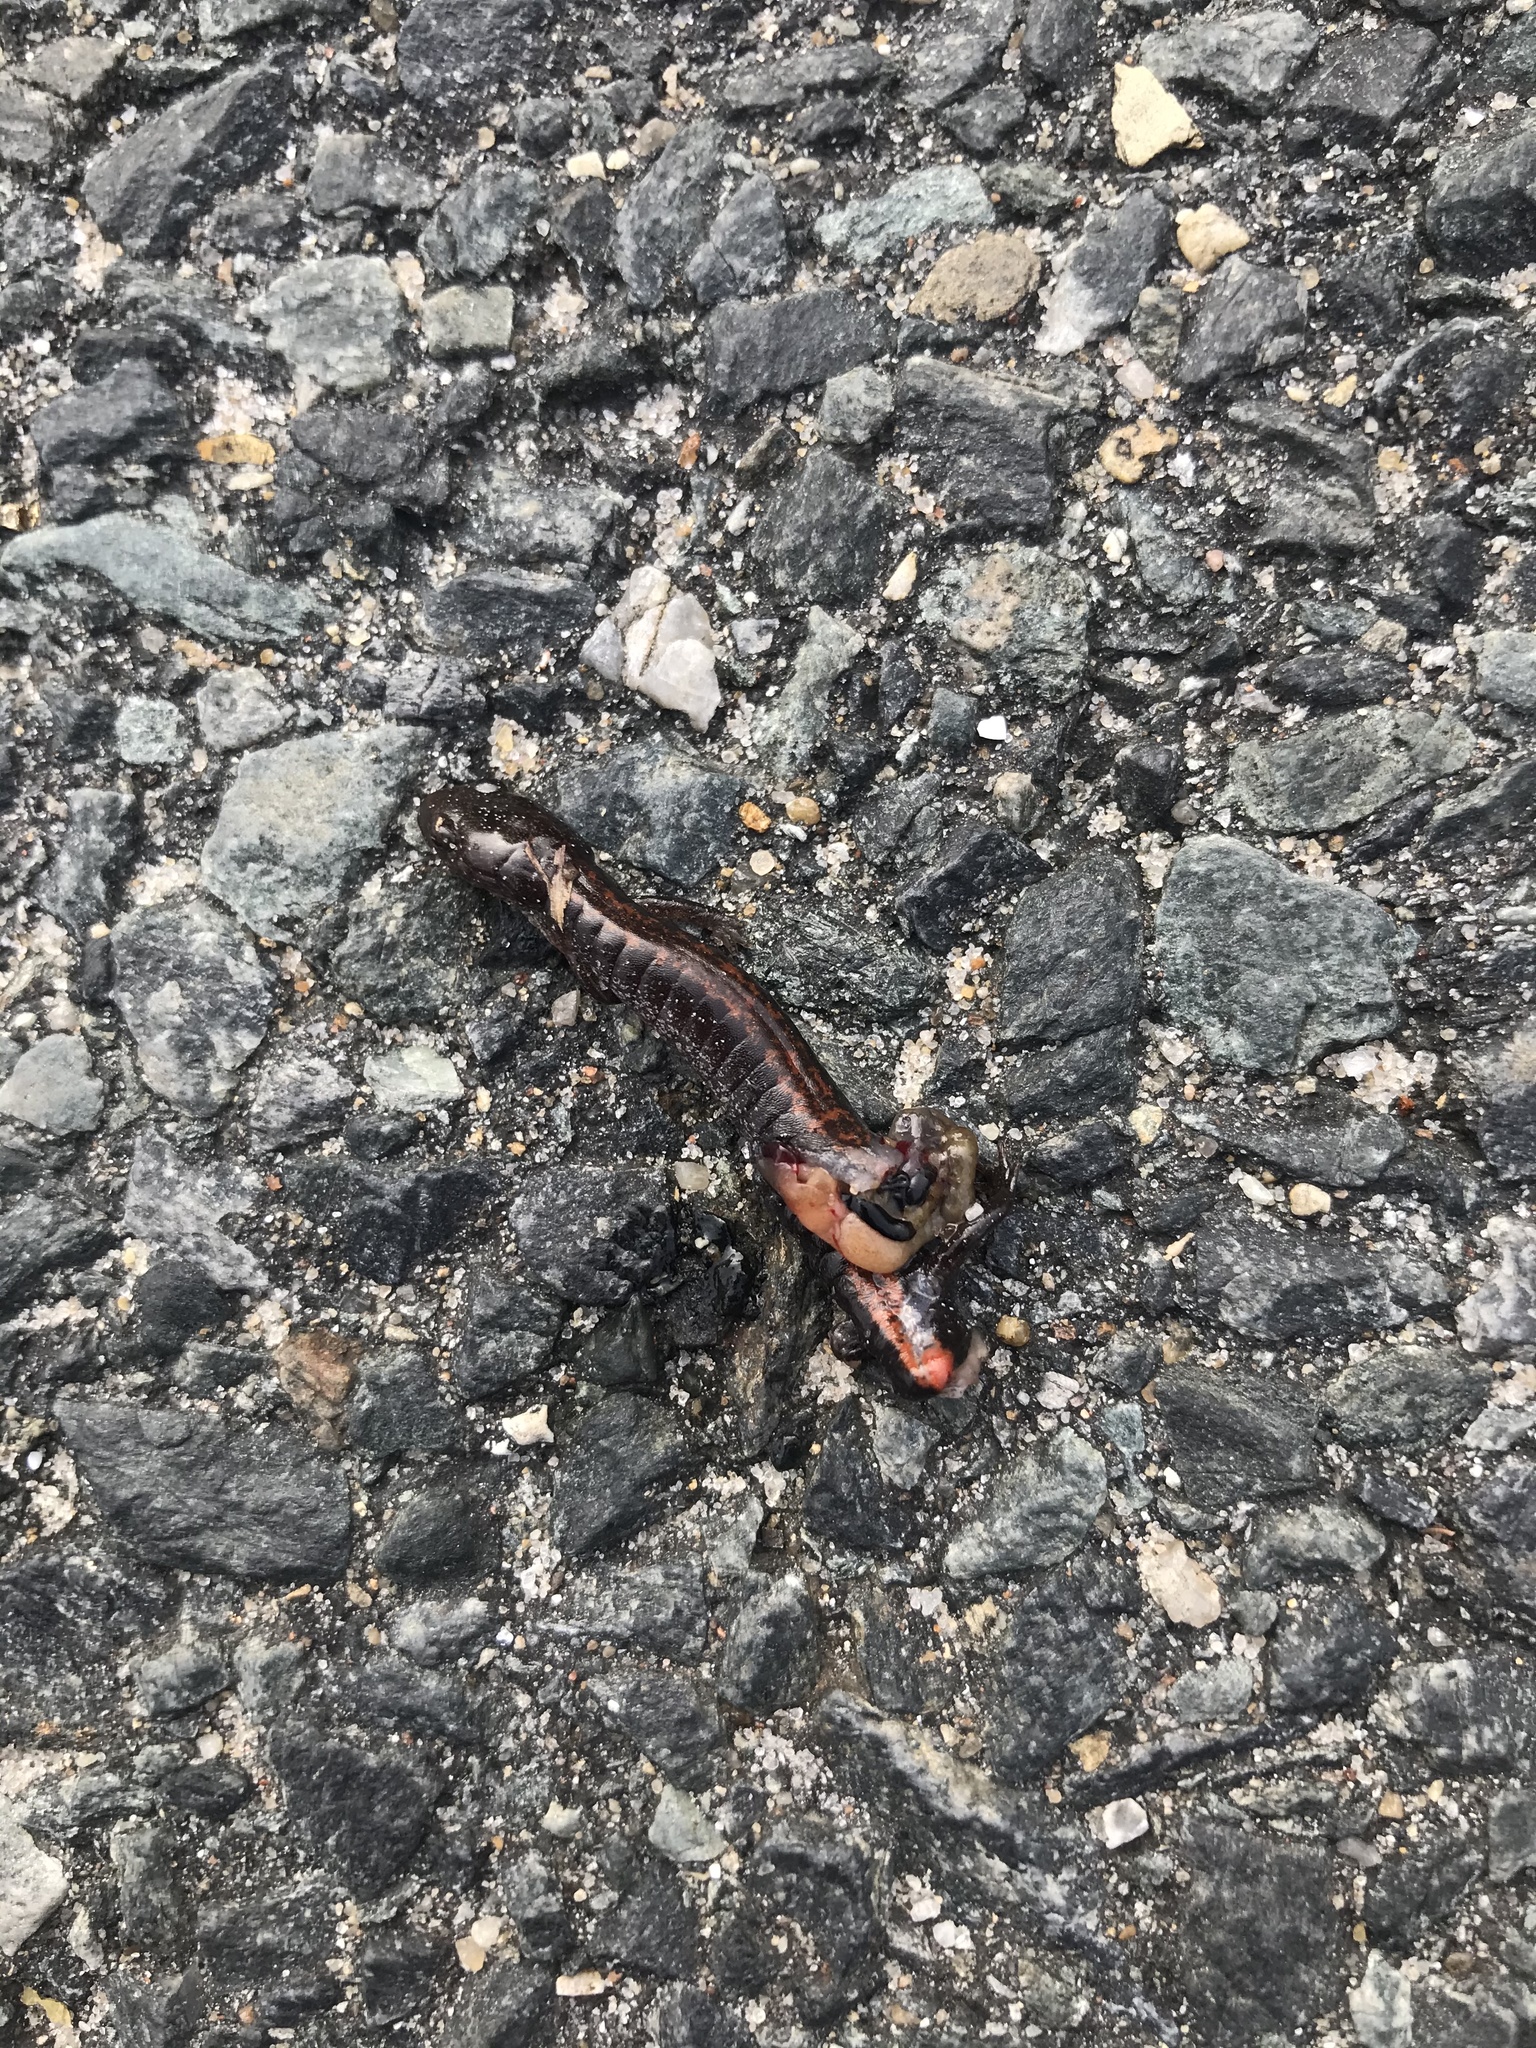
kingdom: Animalia
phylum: Chordata
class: Amphibia
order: Caudata
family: Plethodontidae
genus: Plethodon
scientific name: Plethodon cinereus
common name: Redback salamander
